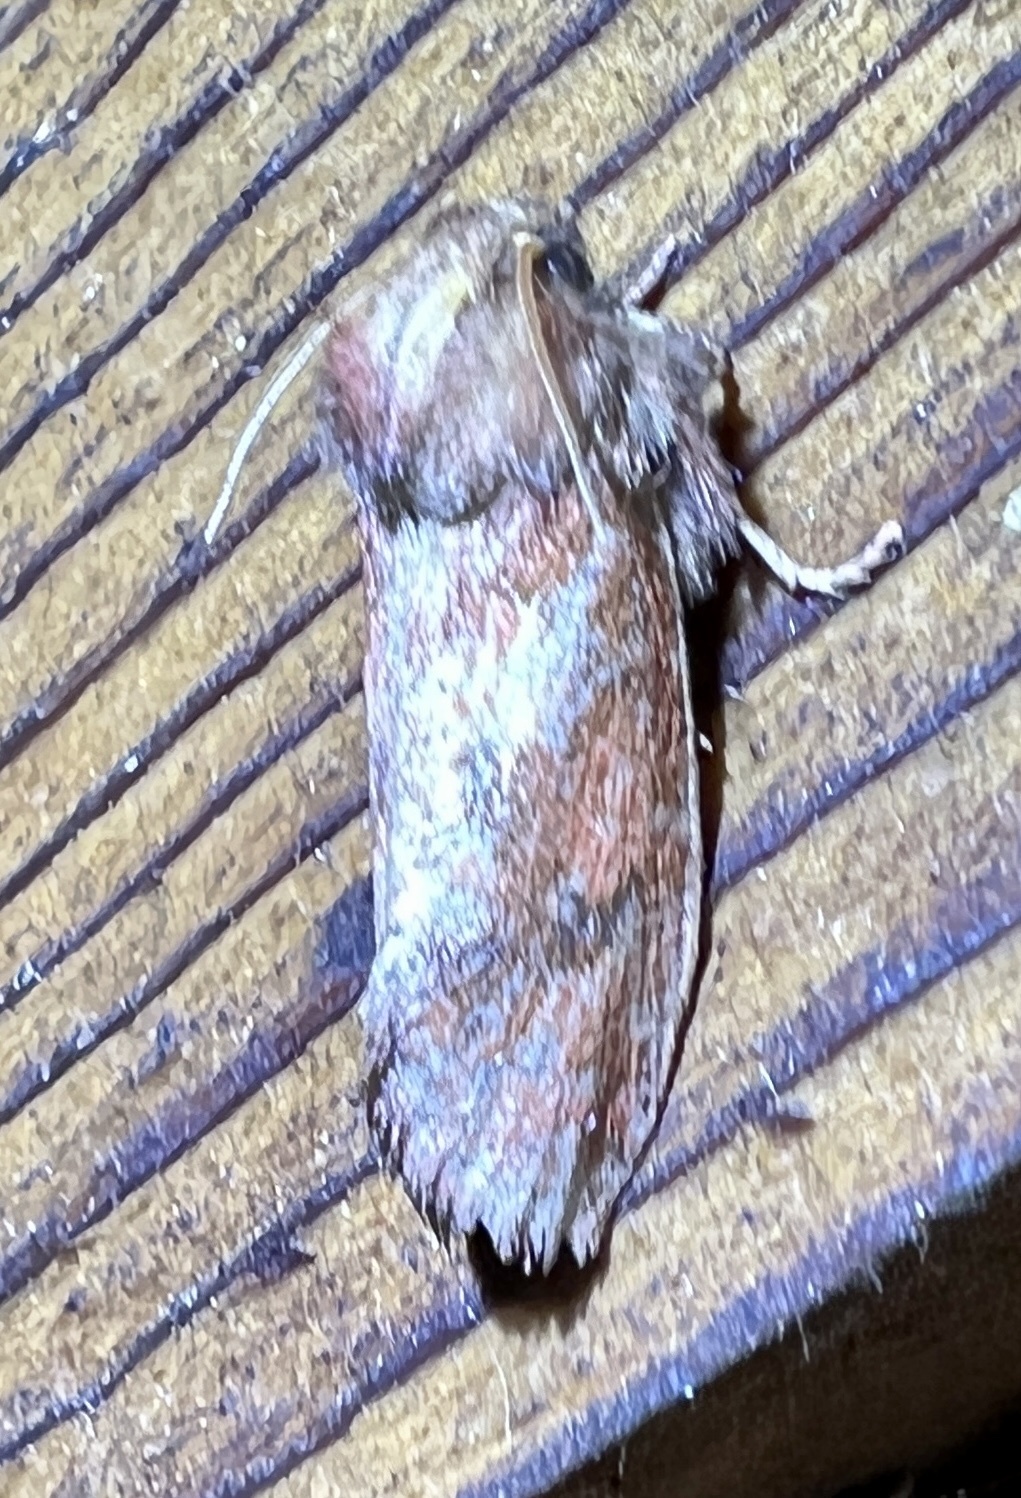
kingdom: Animalia
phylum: Arthropoda
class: Insecta
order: Lepidoptera
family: Tineidae
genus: Acrolophus
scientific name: Acrolophus plumifrontella
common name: Eastern grass tubeworm moth
